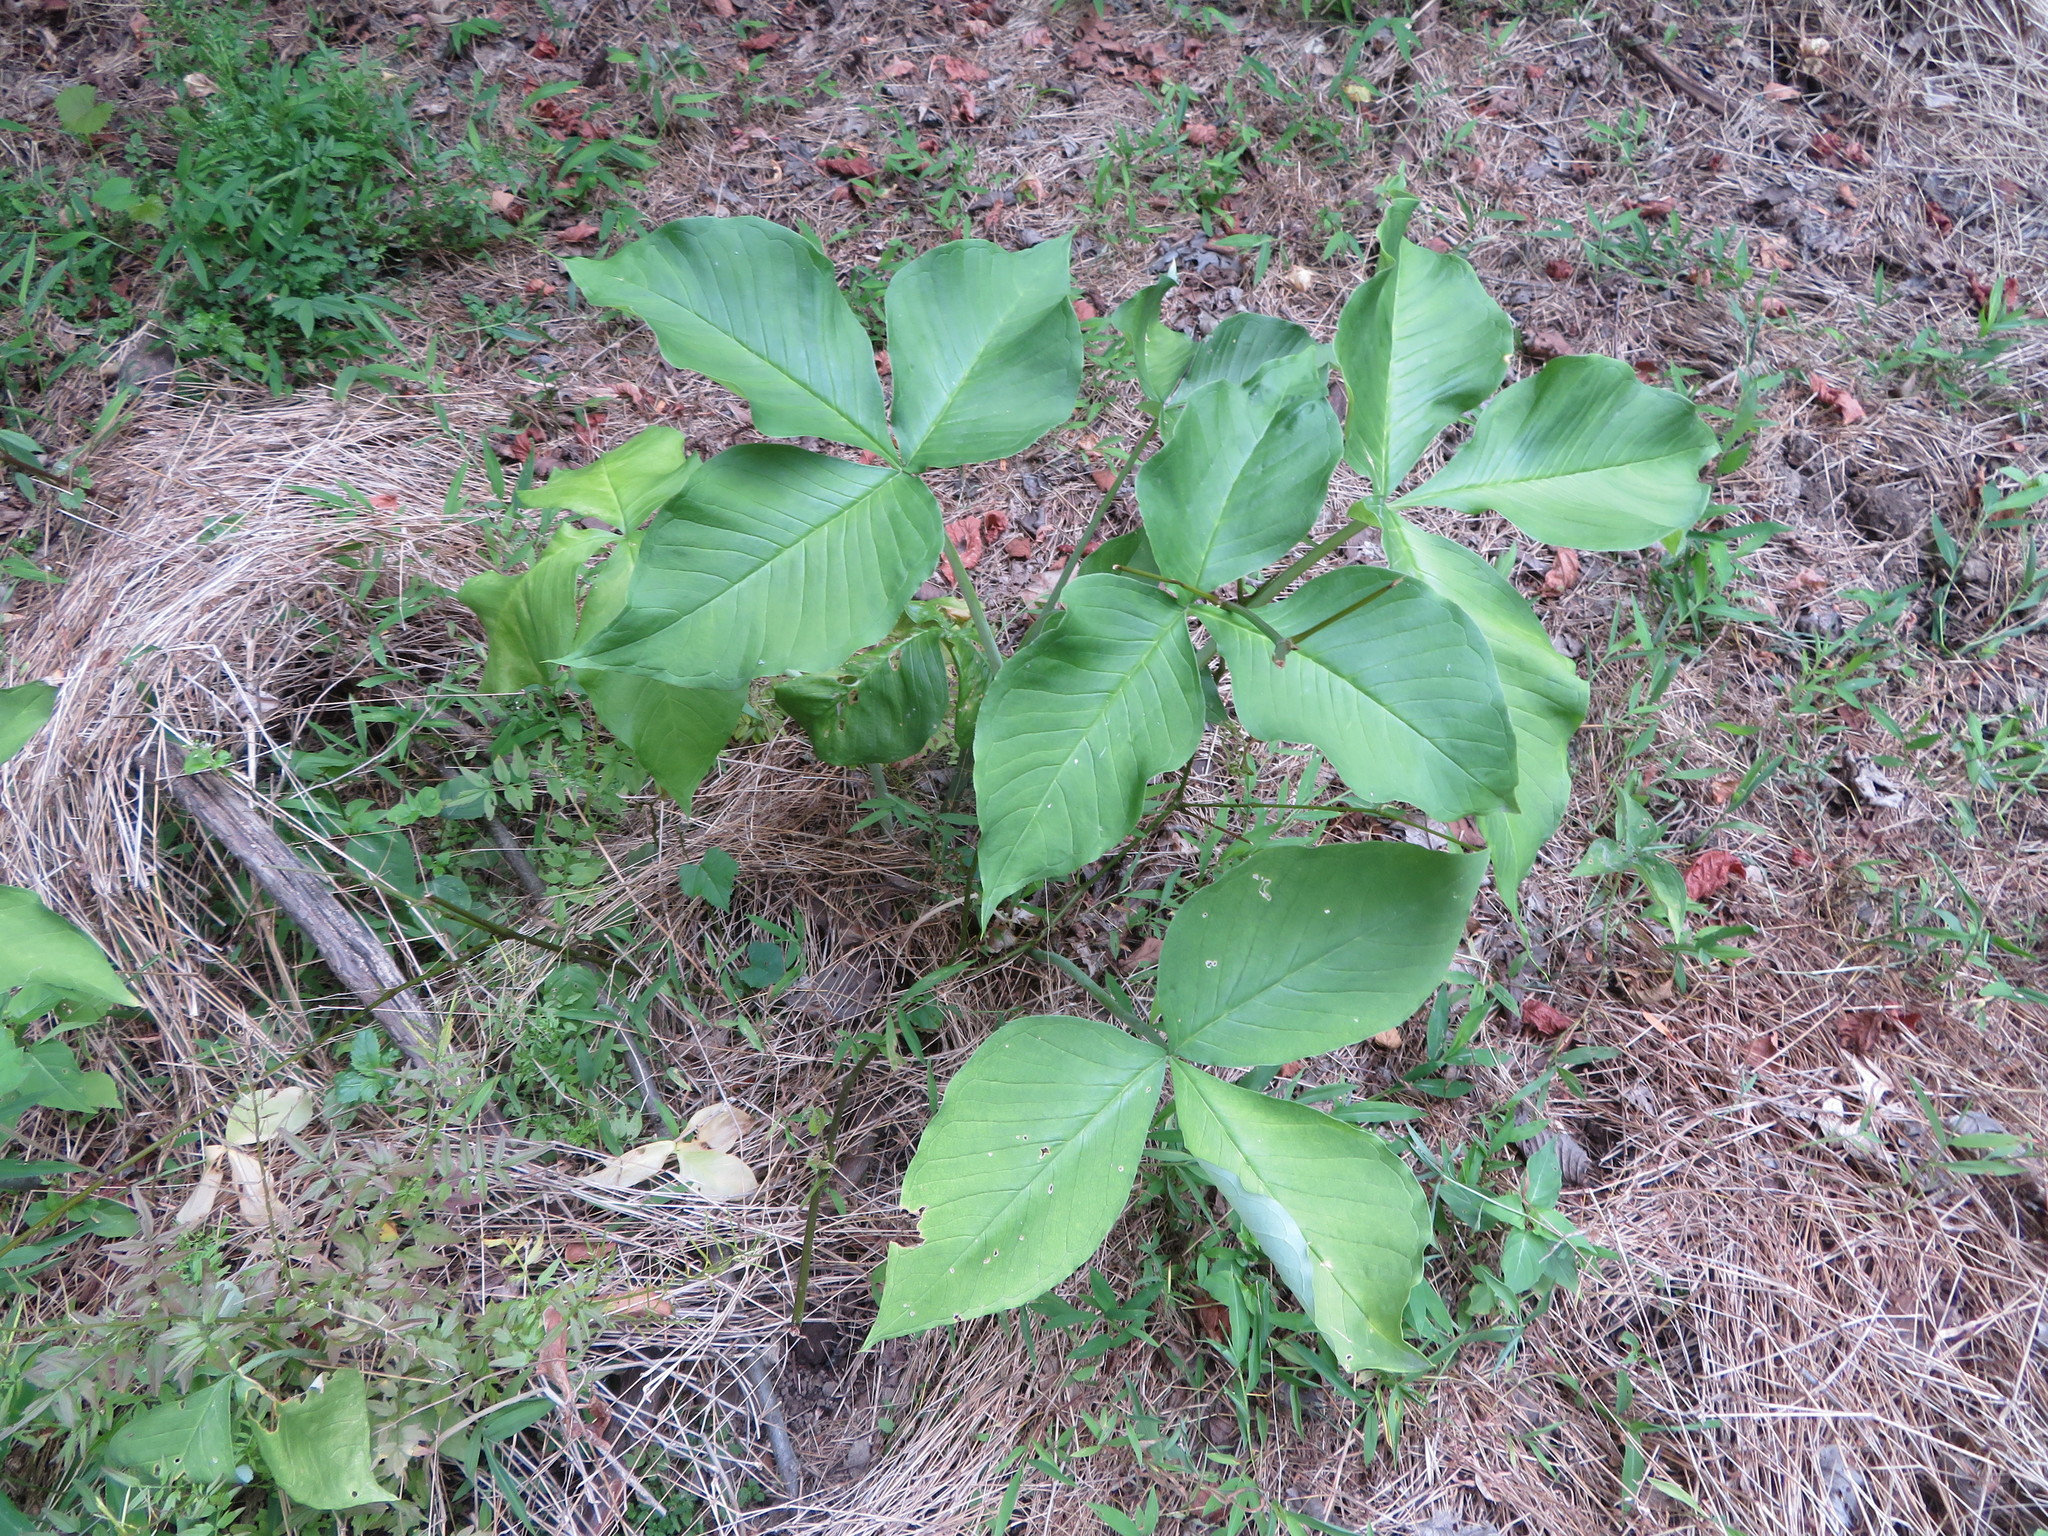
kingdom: Plantae
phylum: Tracheophyta
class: Liliopsida
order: Alismatales
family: Araceae
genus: Arisaema
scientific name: Arisaema triphyllum
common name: Jack-in-the-pulpit
